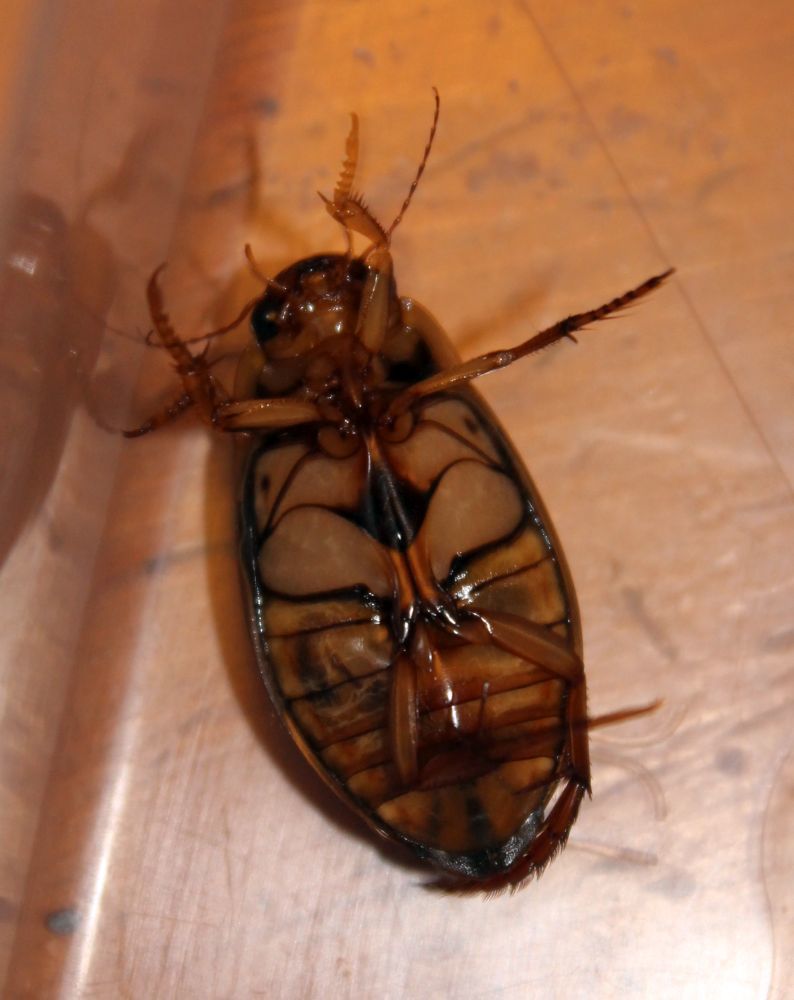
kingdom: Animalia
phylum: Arthropoda
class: Insecta
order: Coleoptera
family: Dytiscidae
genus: Dytiscus
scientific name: Dytiscus marginalis
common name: Great water beetle
